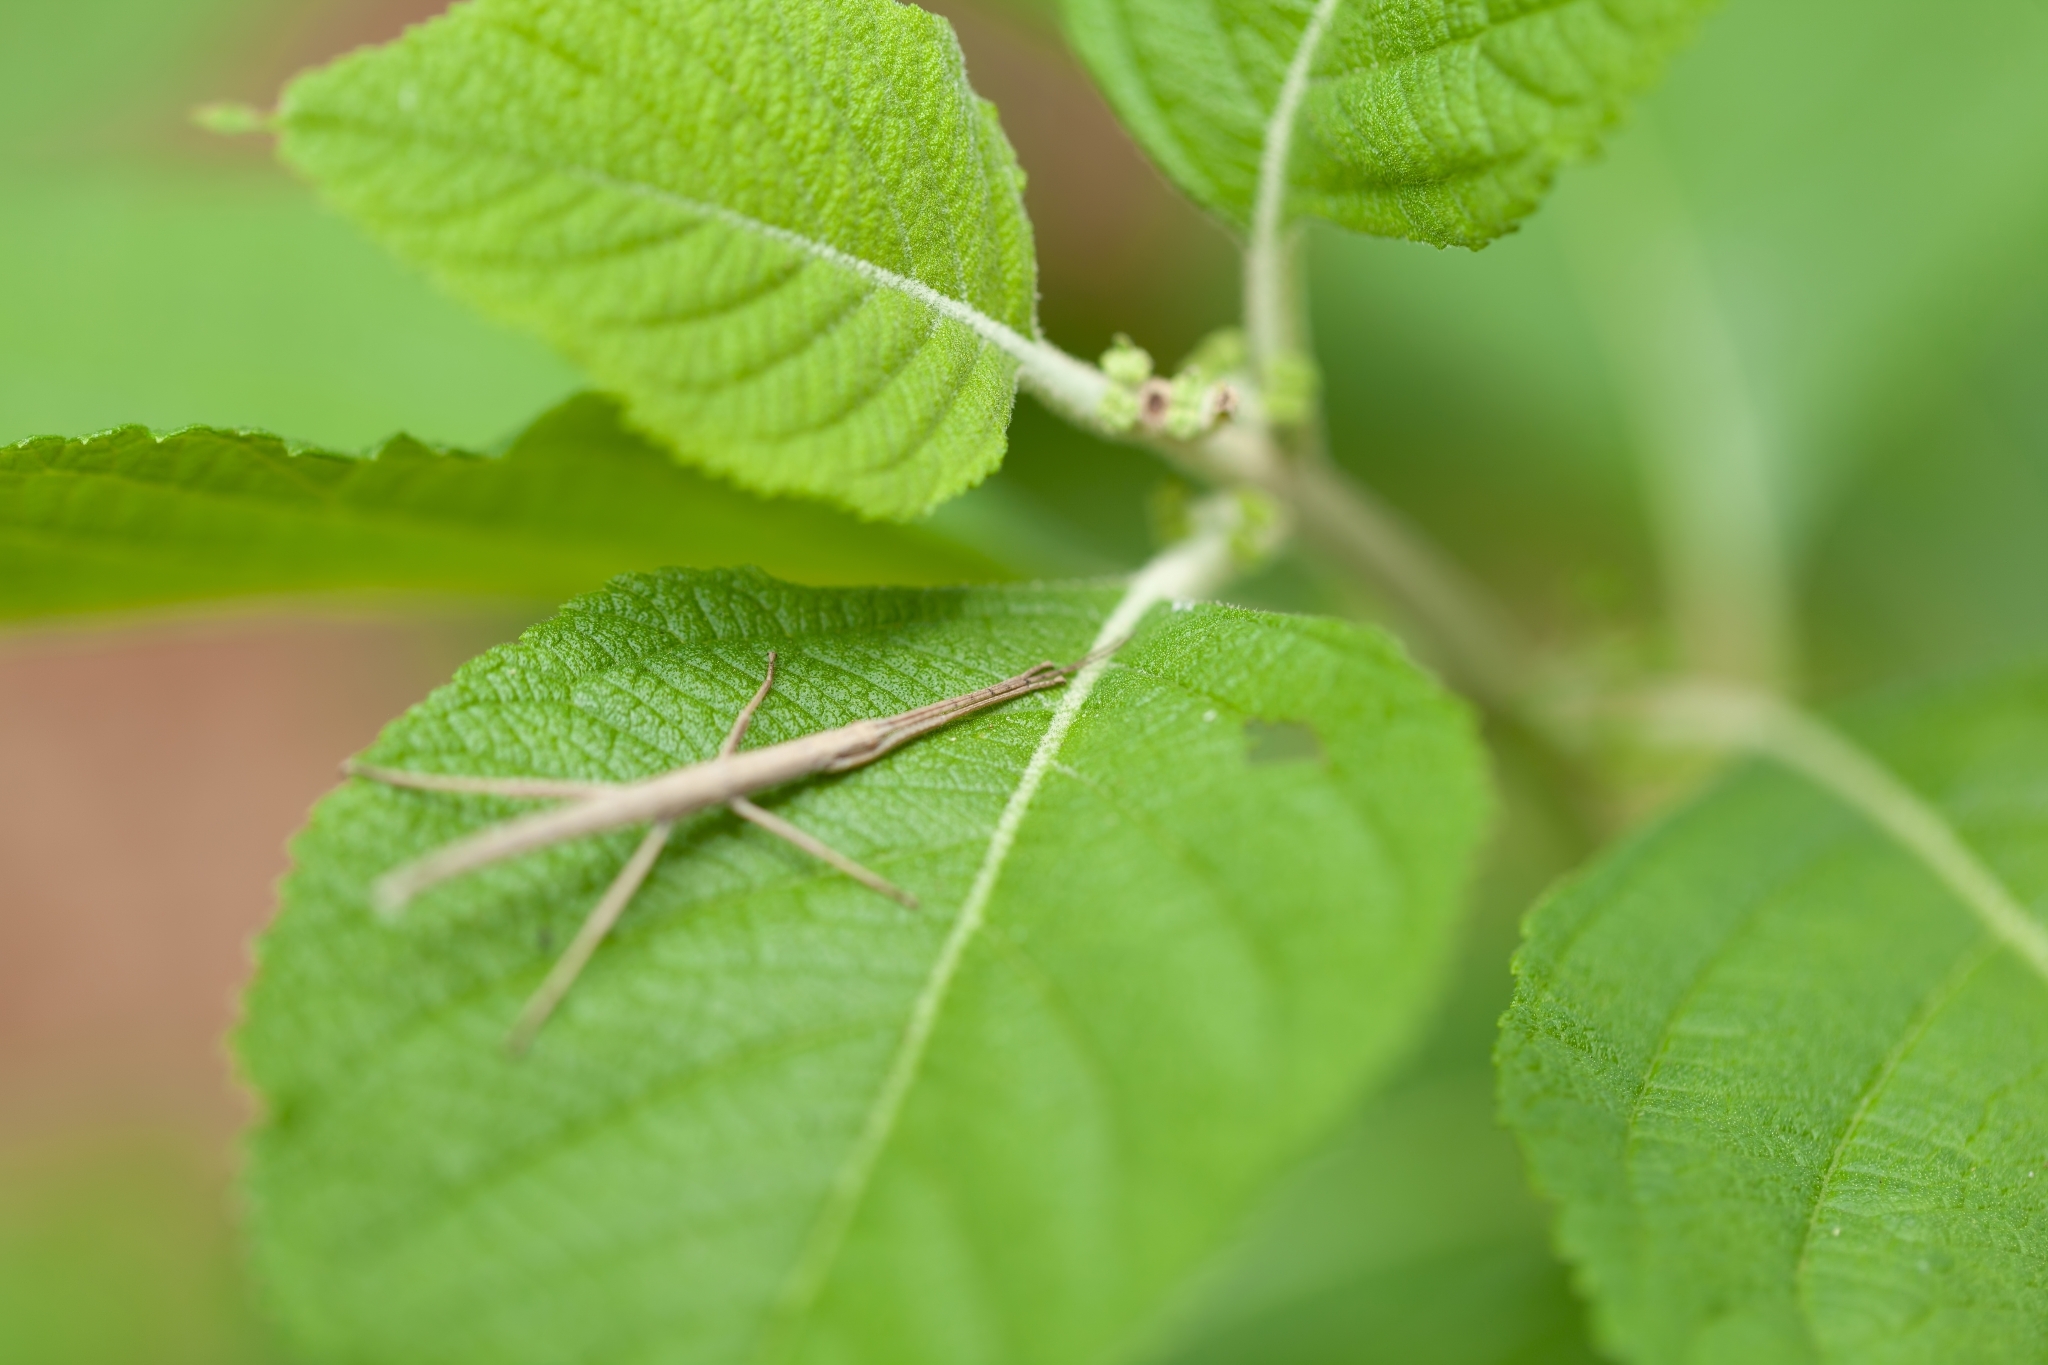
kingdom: Animalia
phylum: Arthropoda
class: Insecta
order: Phasmida
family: Pseudophasmatidae
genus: Anisomorpha
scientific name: Anisomorpha buprestoides
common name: Florida stick insect
